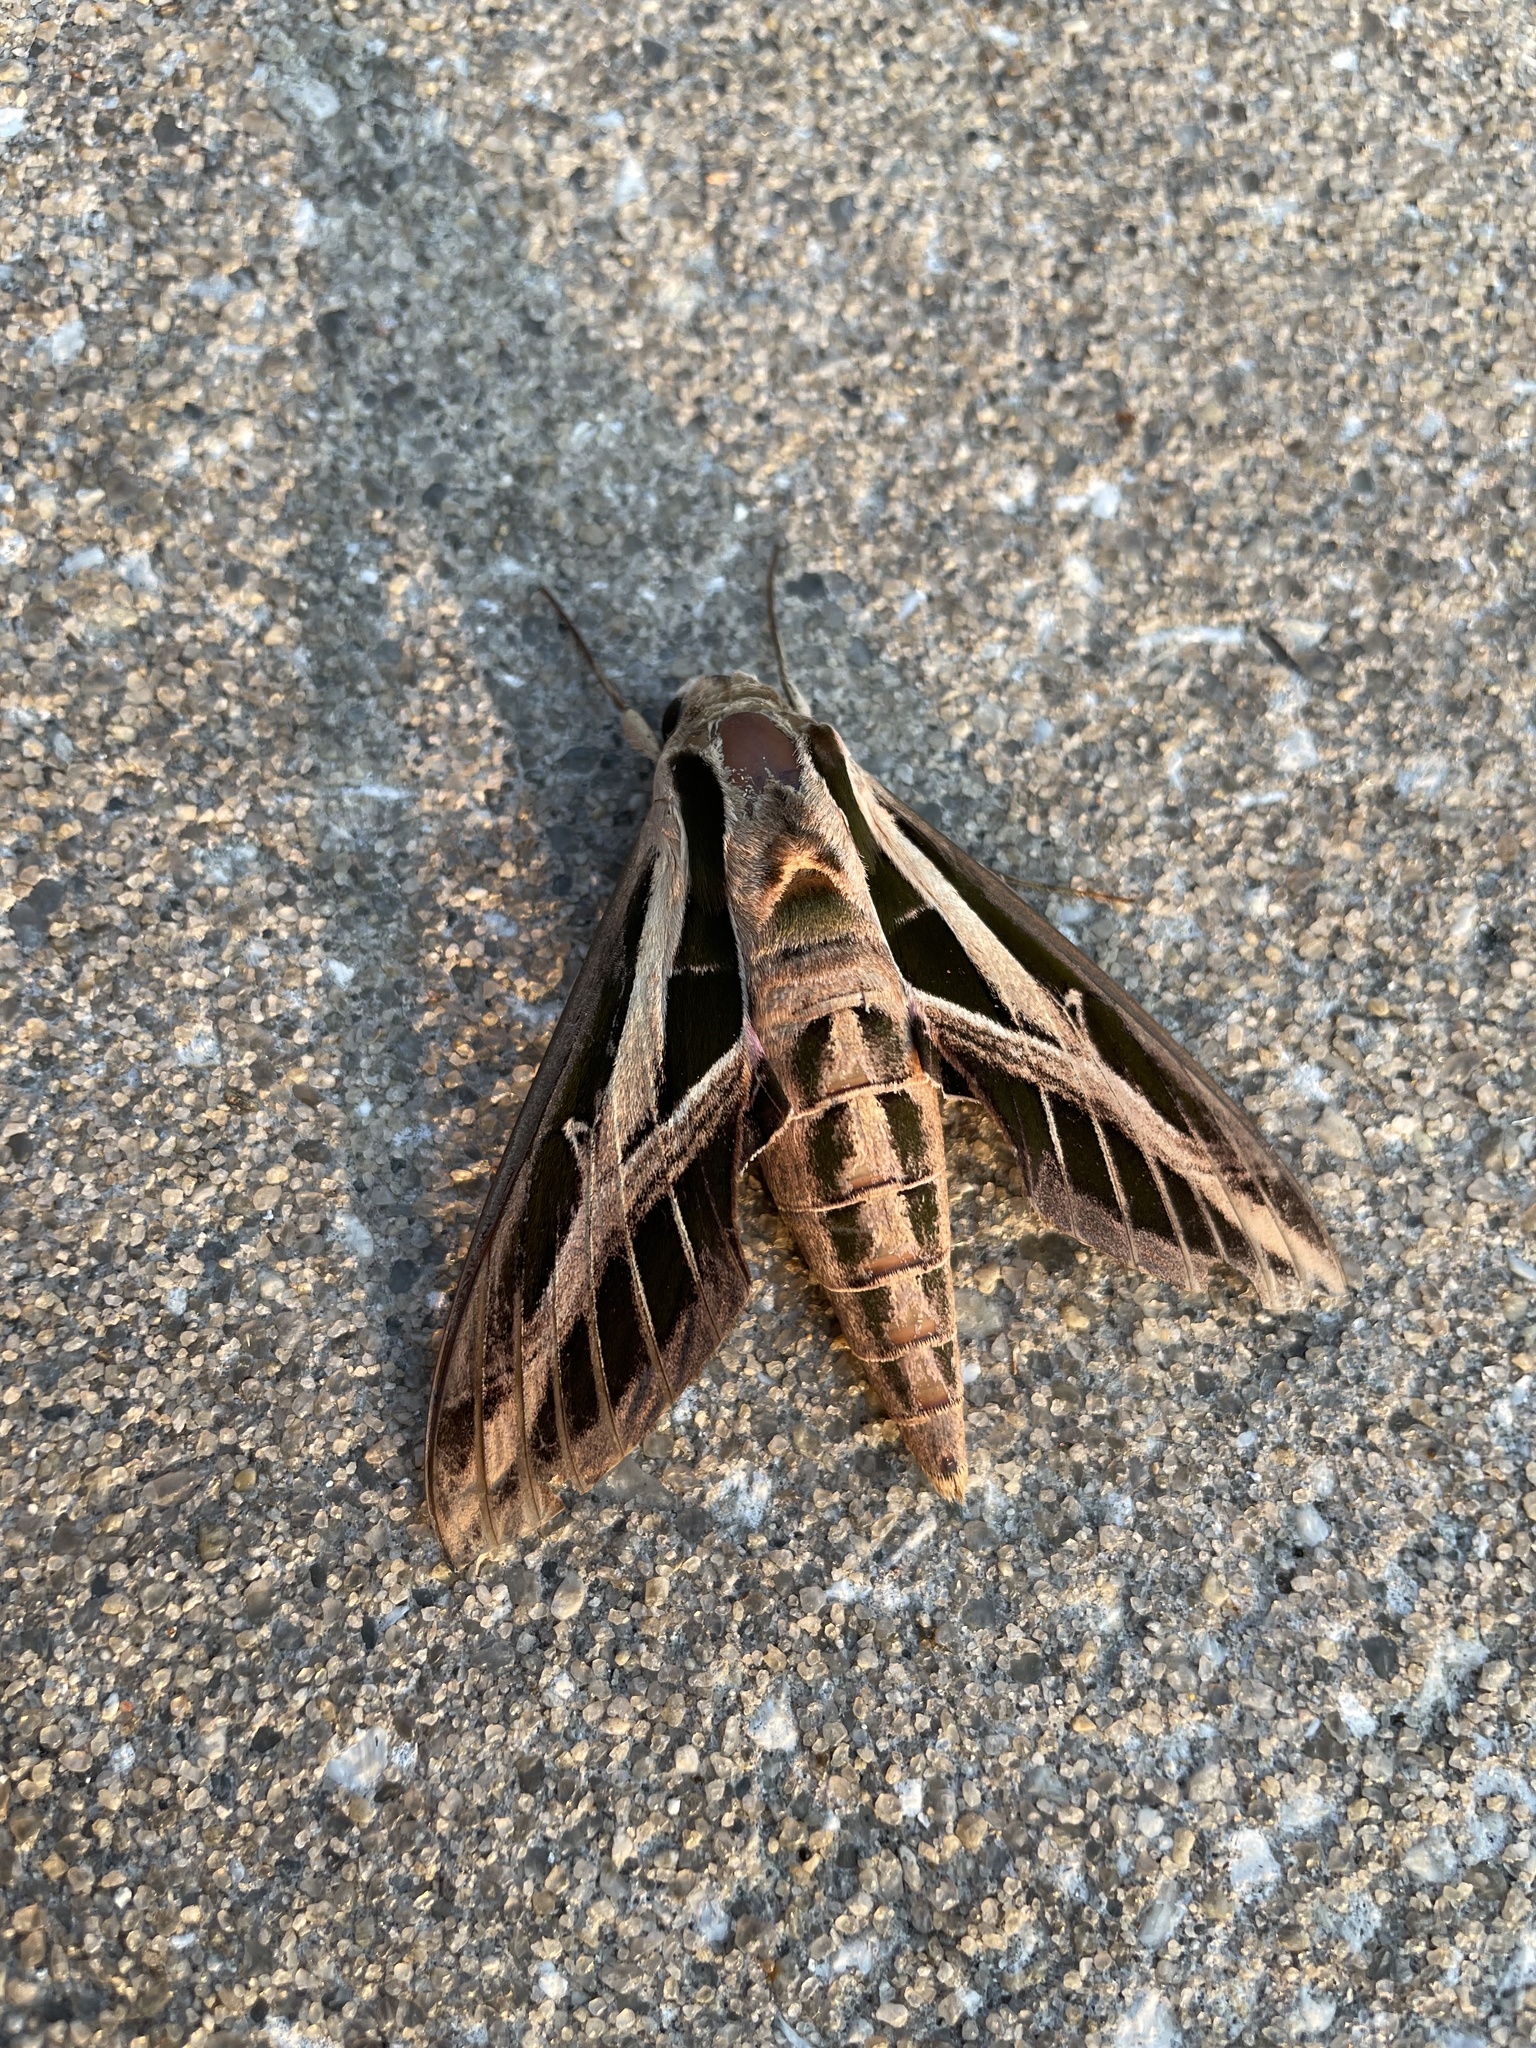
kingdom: Animalia
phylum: Arthropoda
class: Insecta
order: Lepidoptera
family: Sphingidae
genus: Eumorpha
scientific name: Eumorpha fasciatus
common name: Banded sphinx
